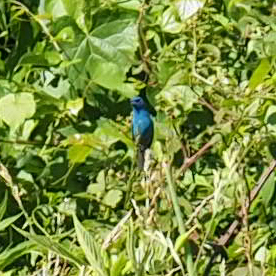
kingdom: Animalia
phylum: Chordata
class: Aves
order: Passeriformes
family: Cardinalidae
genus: Passerina
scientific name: Passerina cyanea
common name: Indigo bunting
